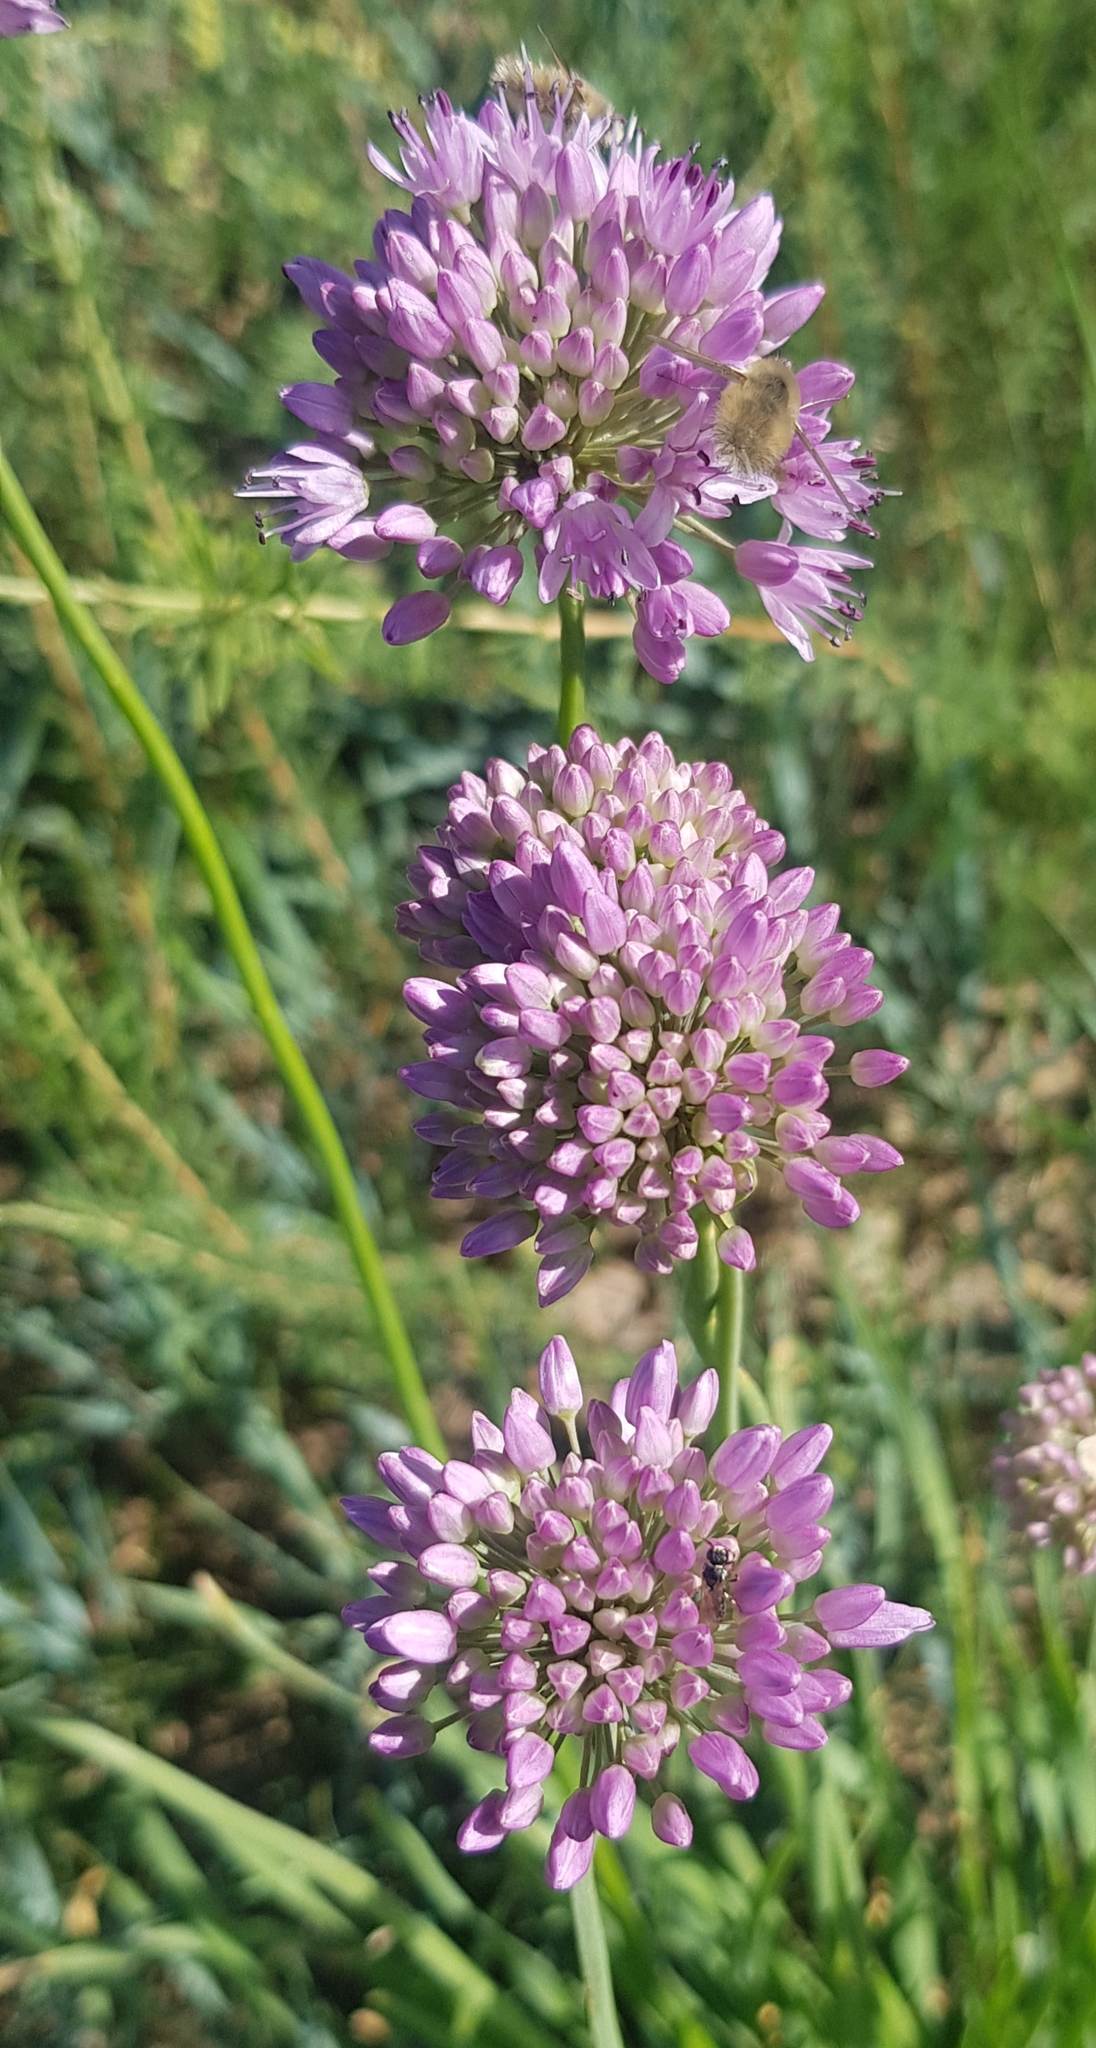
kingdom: Plantae
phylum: Tracheophyta
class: Liliopsida
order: Asparagales
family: Amaryllidaceae
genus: Allium
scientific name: Allium senescens
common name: German garlic
